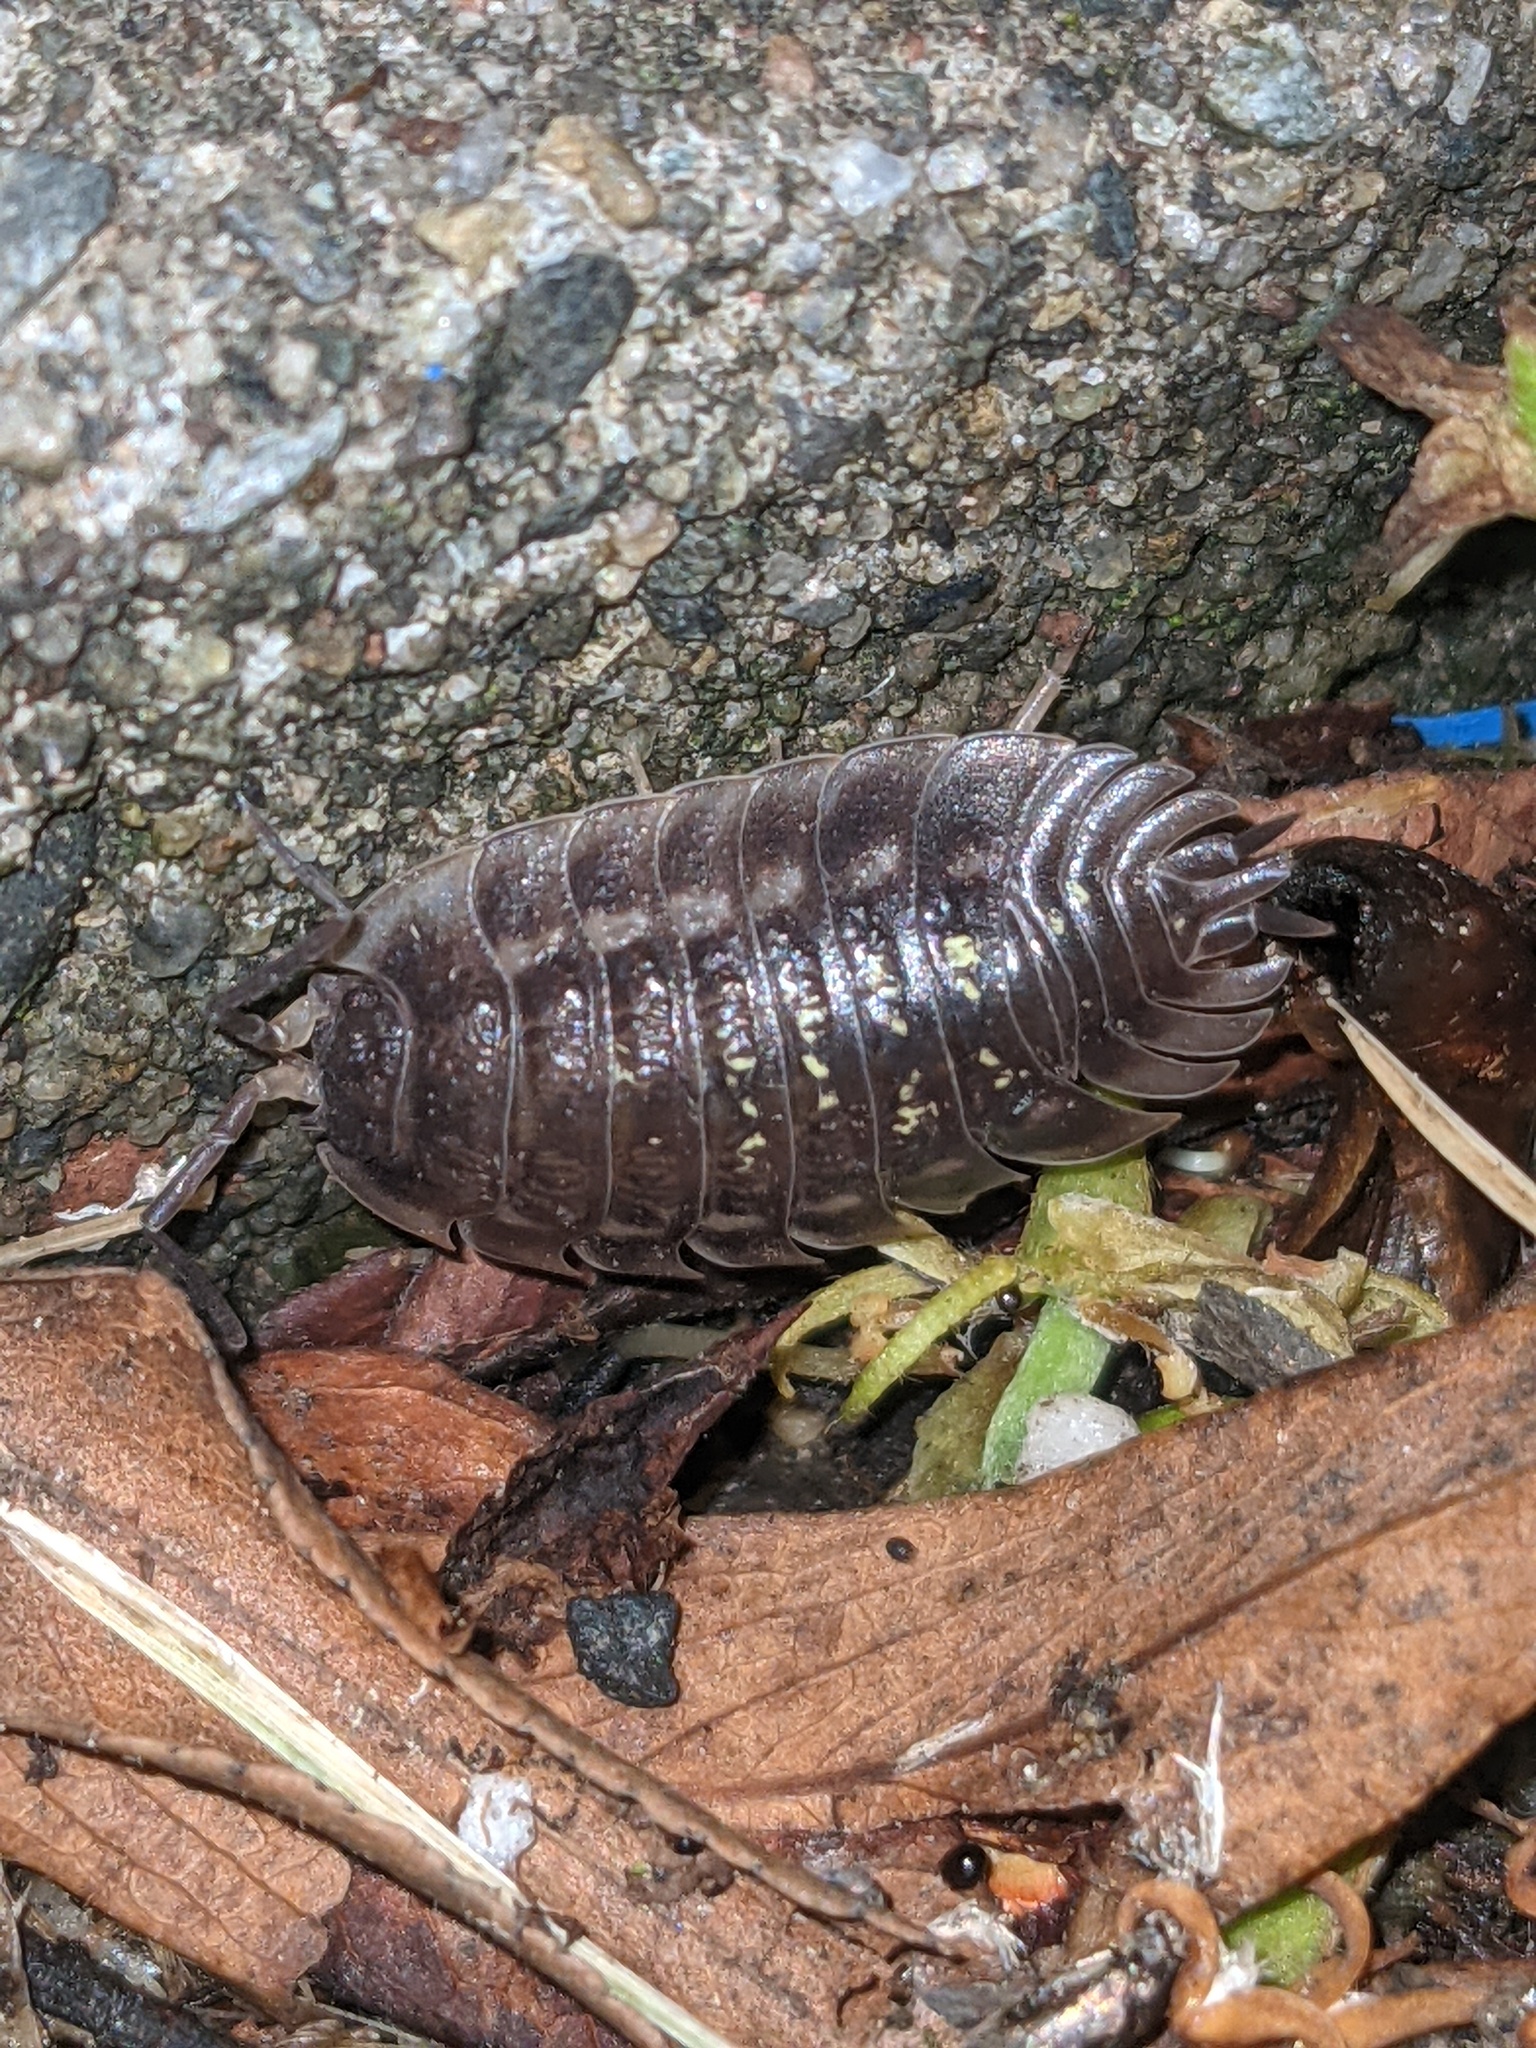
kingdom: Animalia
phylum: Arthropoda
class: Malacostraca
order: Isopoda
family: Oniscidae
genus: Oniscus
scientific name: Oniscus asellus
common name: Common shiny woodlouse
